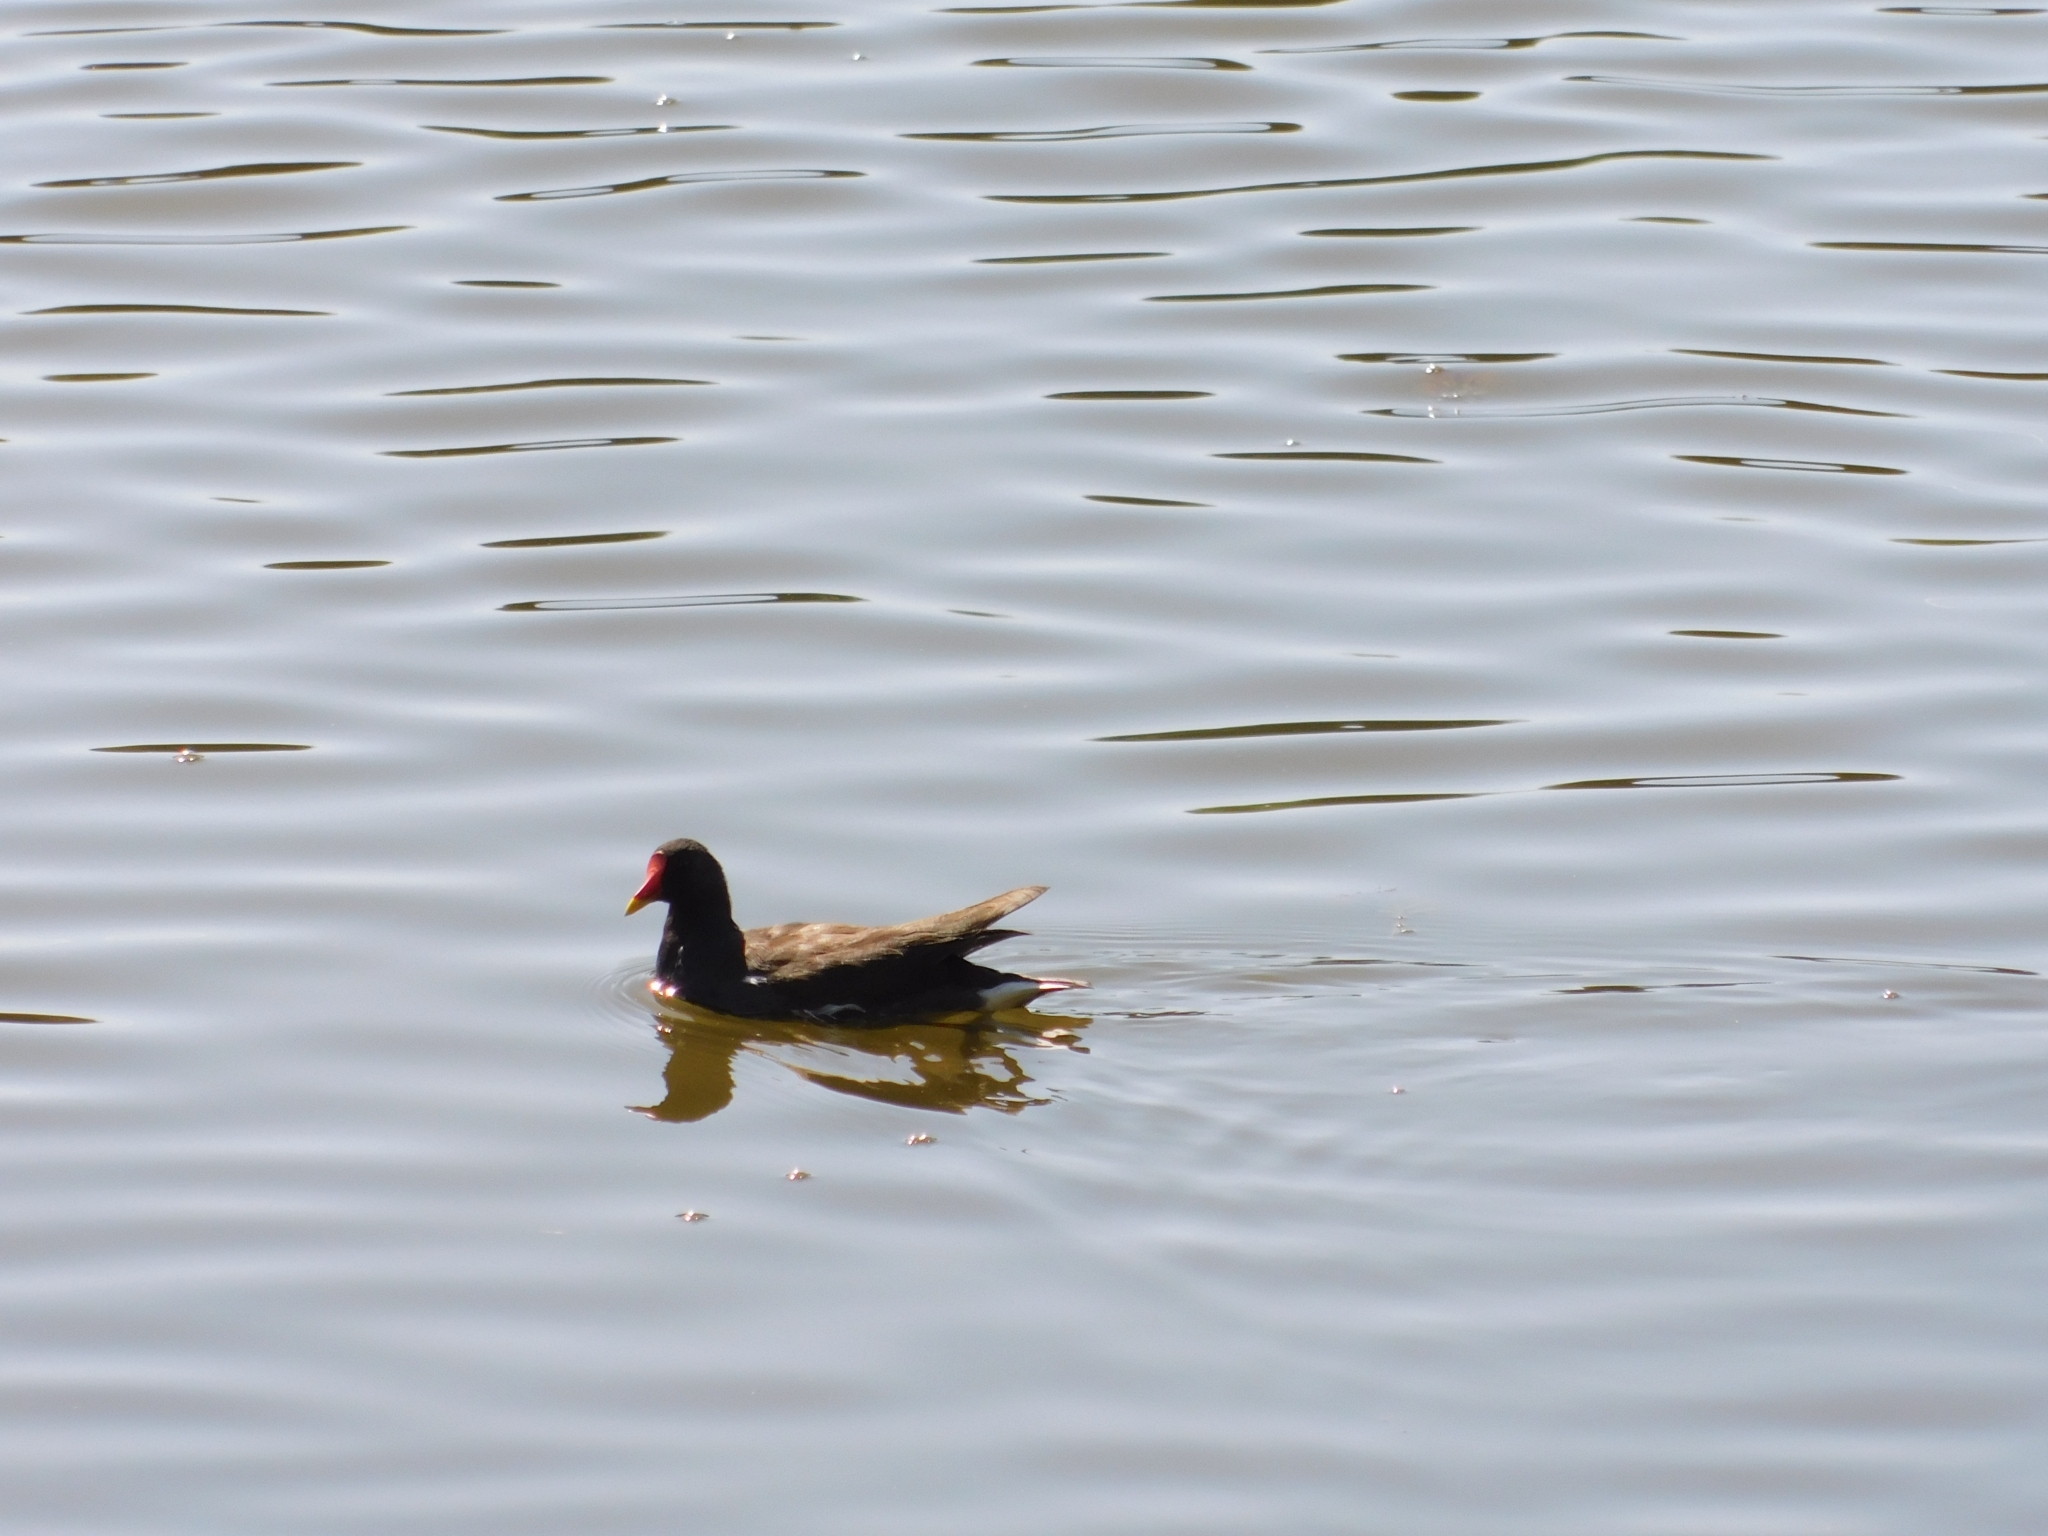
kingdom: Animalia
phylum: Chordata
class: Aves
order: Gruiformes
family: Rallidae
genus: Gallinula
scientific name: Gallinula chloropus
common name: Common moorhen
